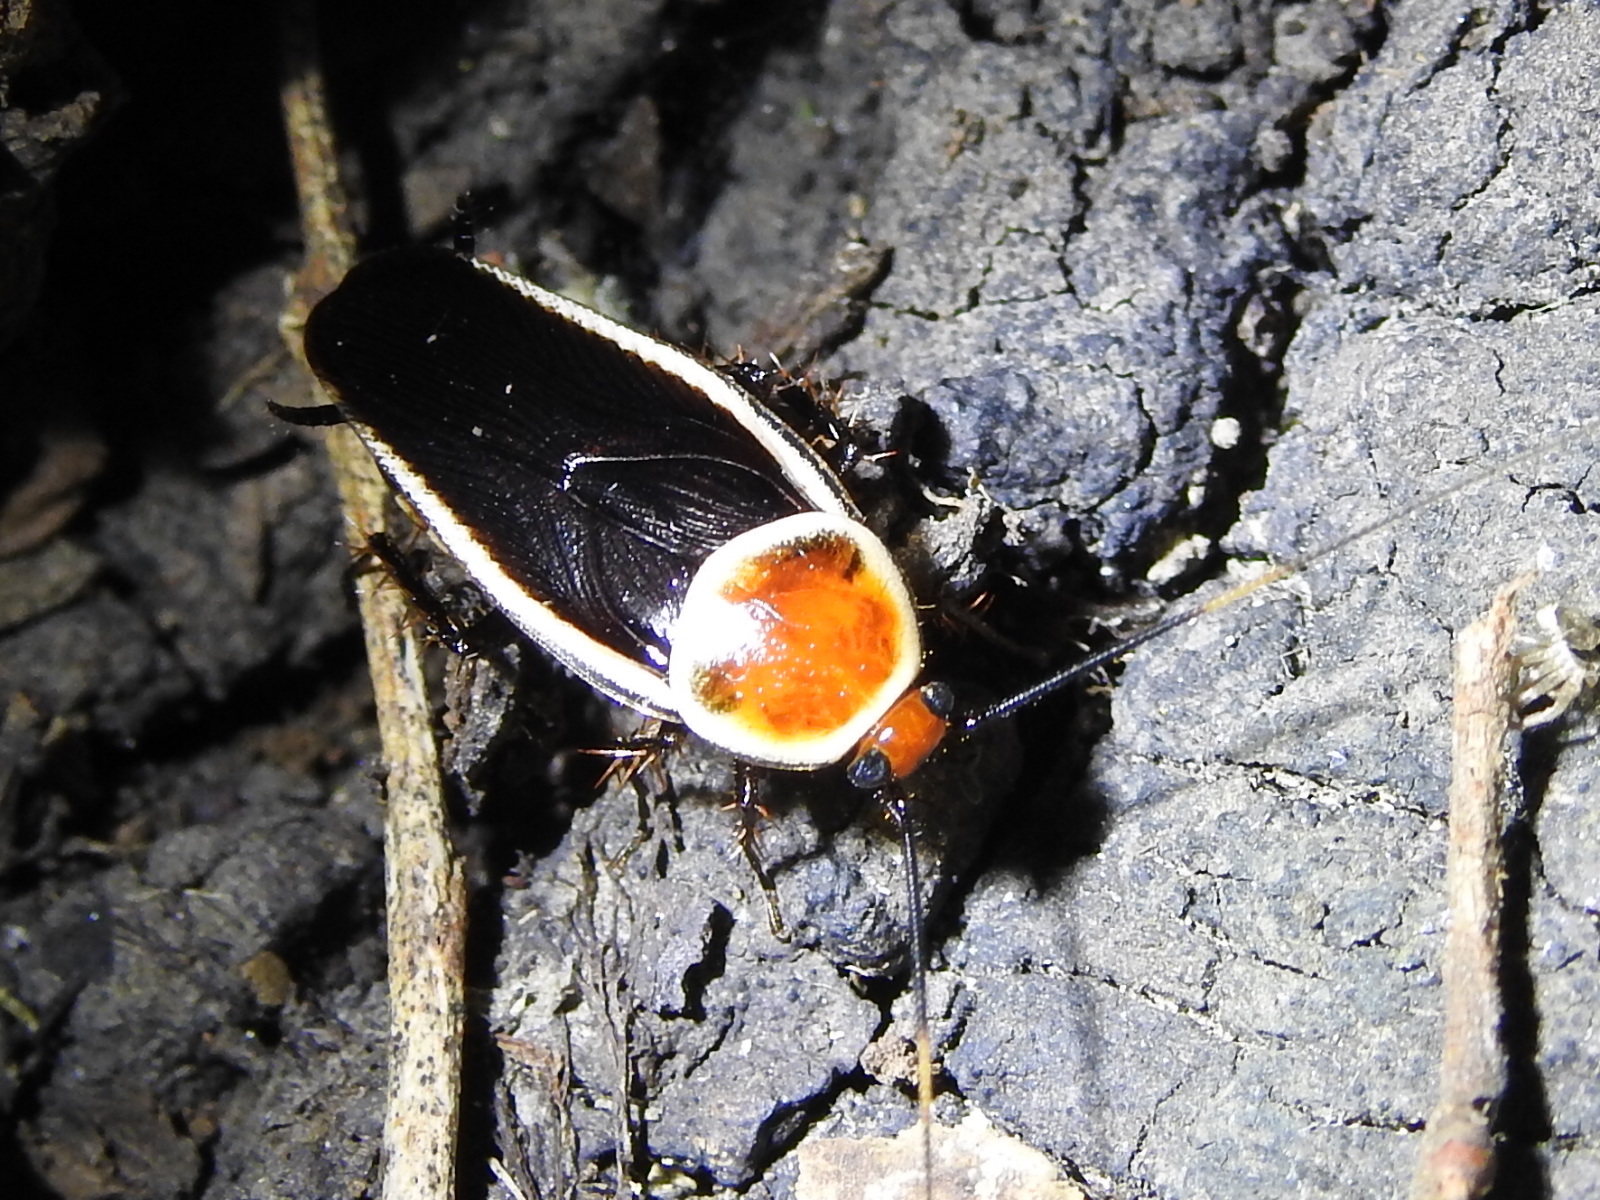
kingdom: Animalia
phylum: Arthropoda
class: Insecta
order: Blattodea
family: Ectobiidae
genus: Pseudomops
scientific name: Pseudomops septentrionalis
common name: Pale-bordered field cockroach
